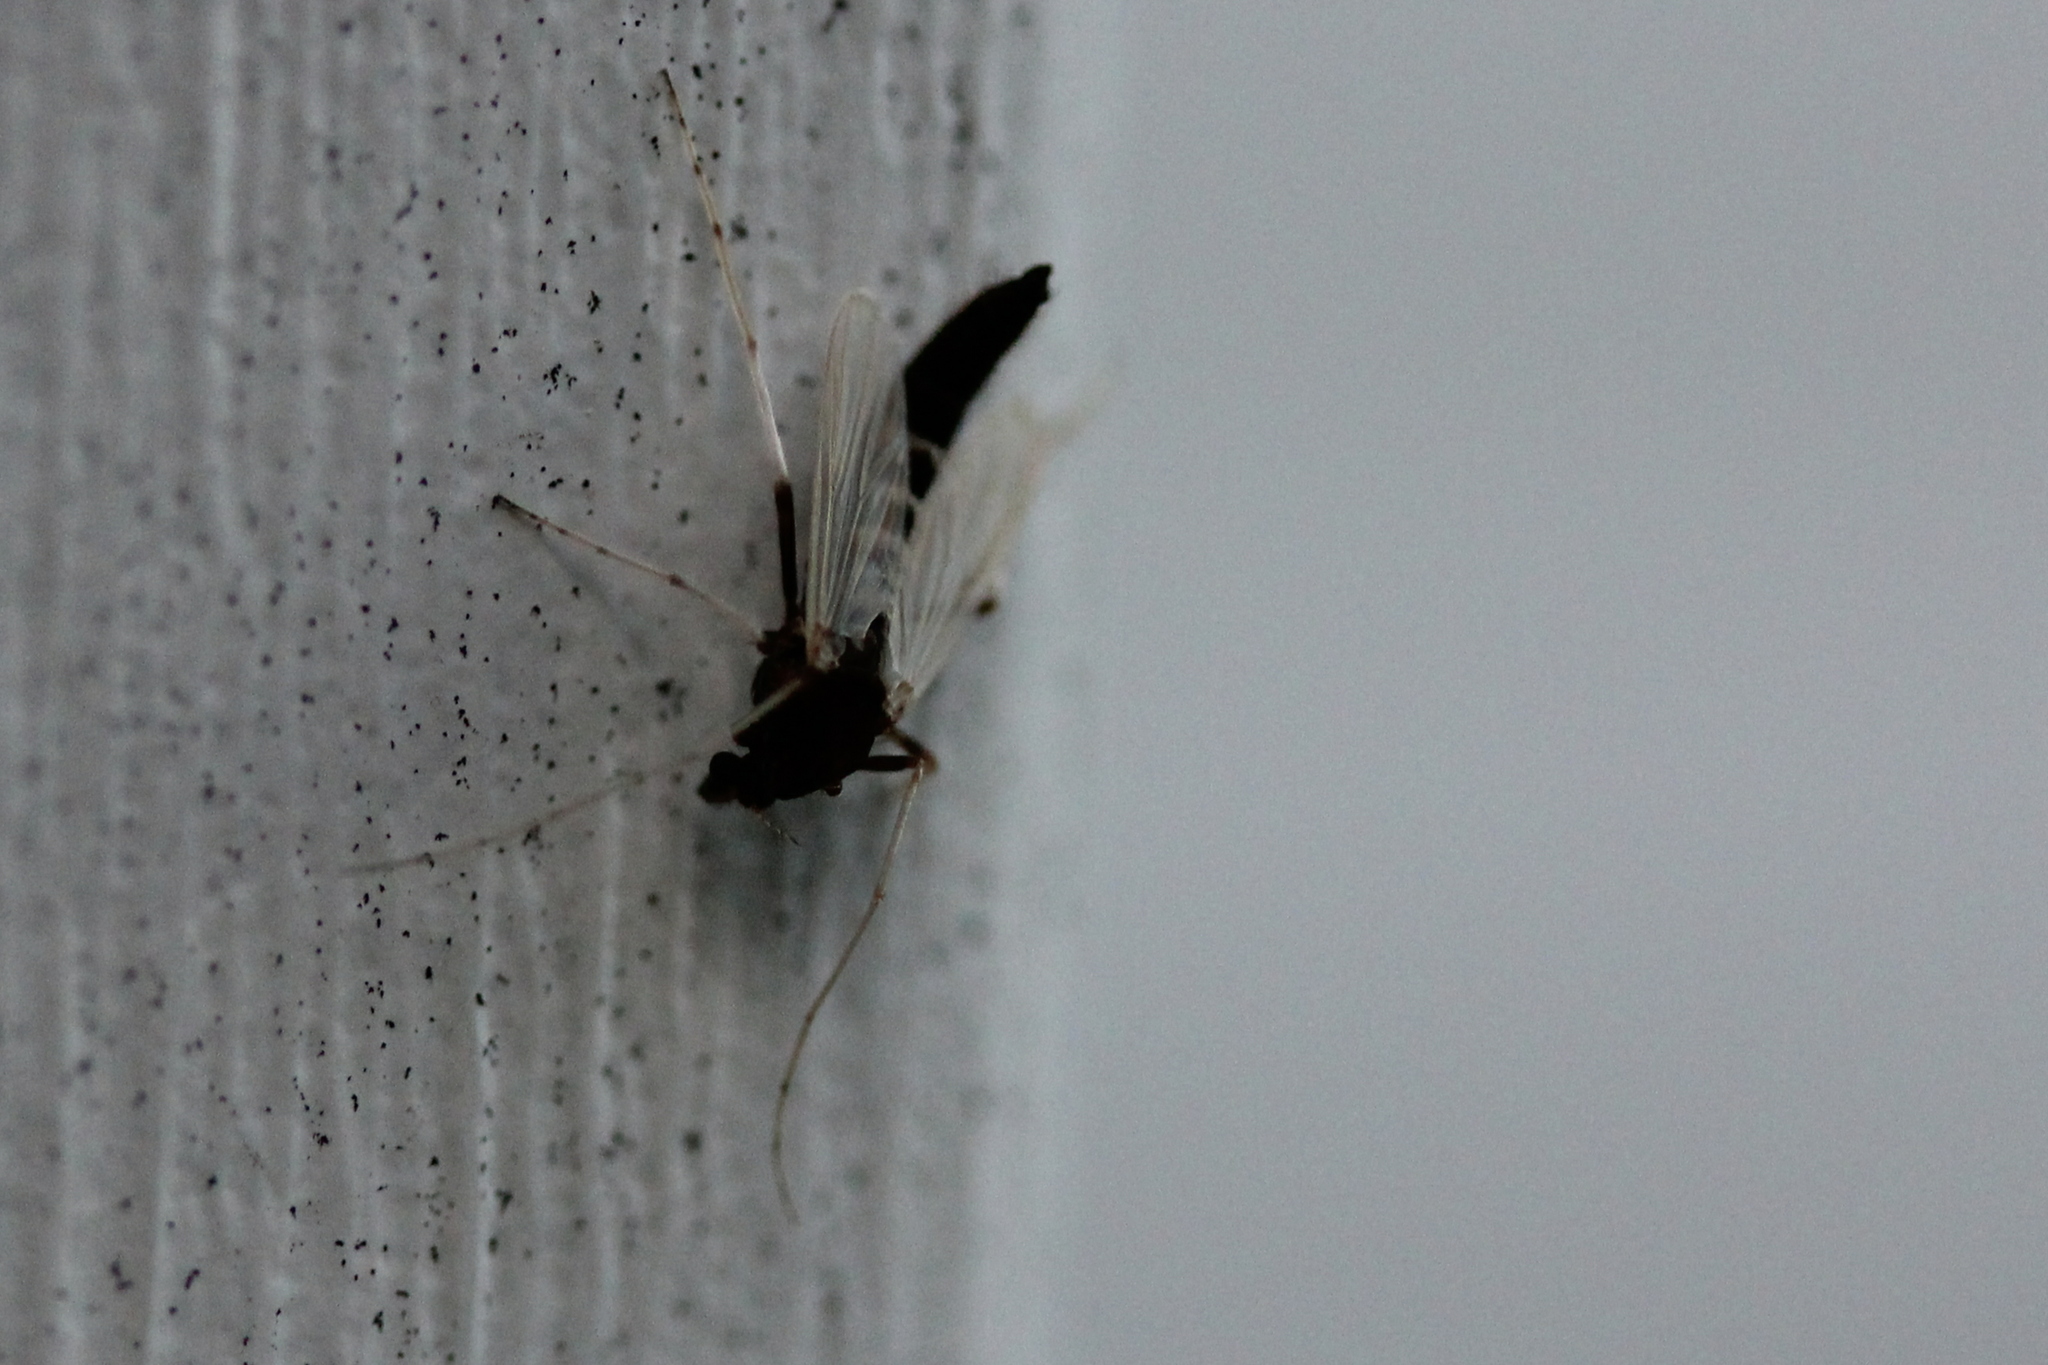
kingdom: Animalia
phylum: Arthropoda
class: Insecta
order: Diptera
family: Chironomidae
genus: Stictochironomus
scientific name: Stictochironomus albicrus
